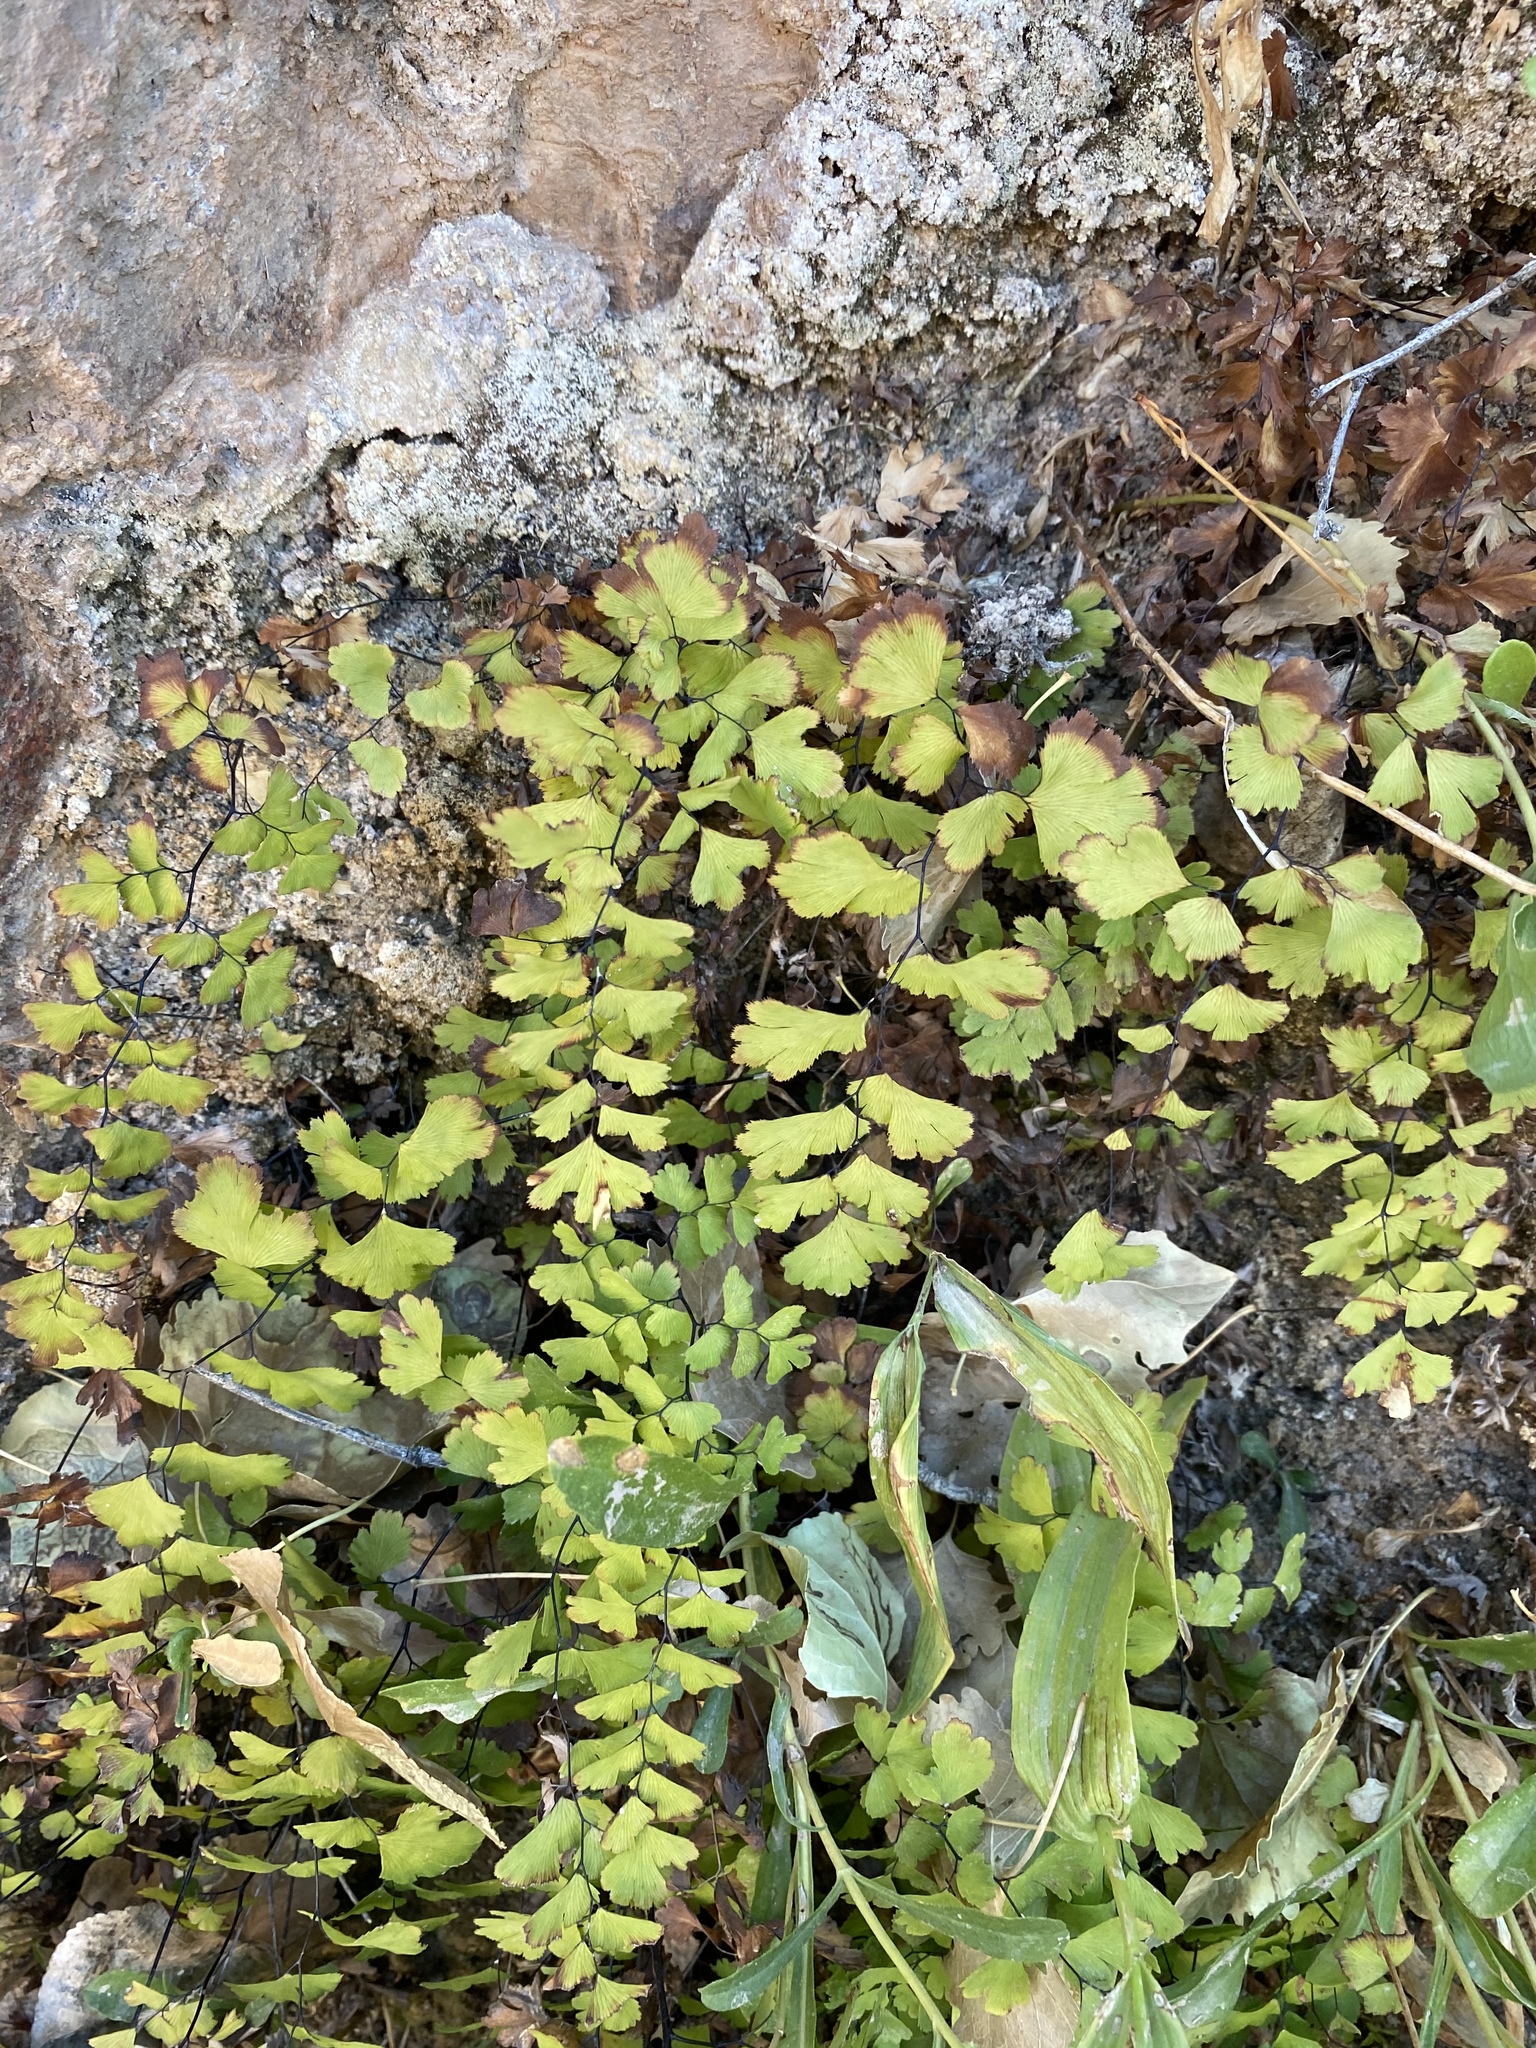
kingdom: Plantae
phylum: Tracheophyta
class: Polypodiopsida
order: Polypodiales
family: Pteridaceae
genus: Adiantum
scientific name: Adiantum capillus-veneris
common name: Maidenhair fern
